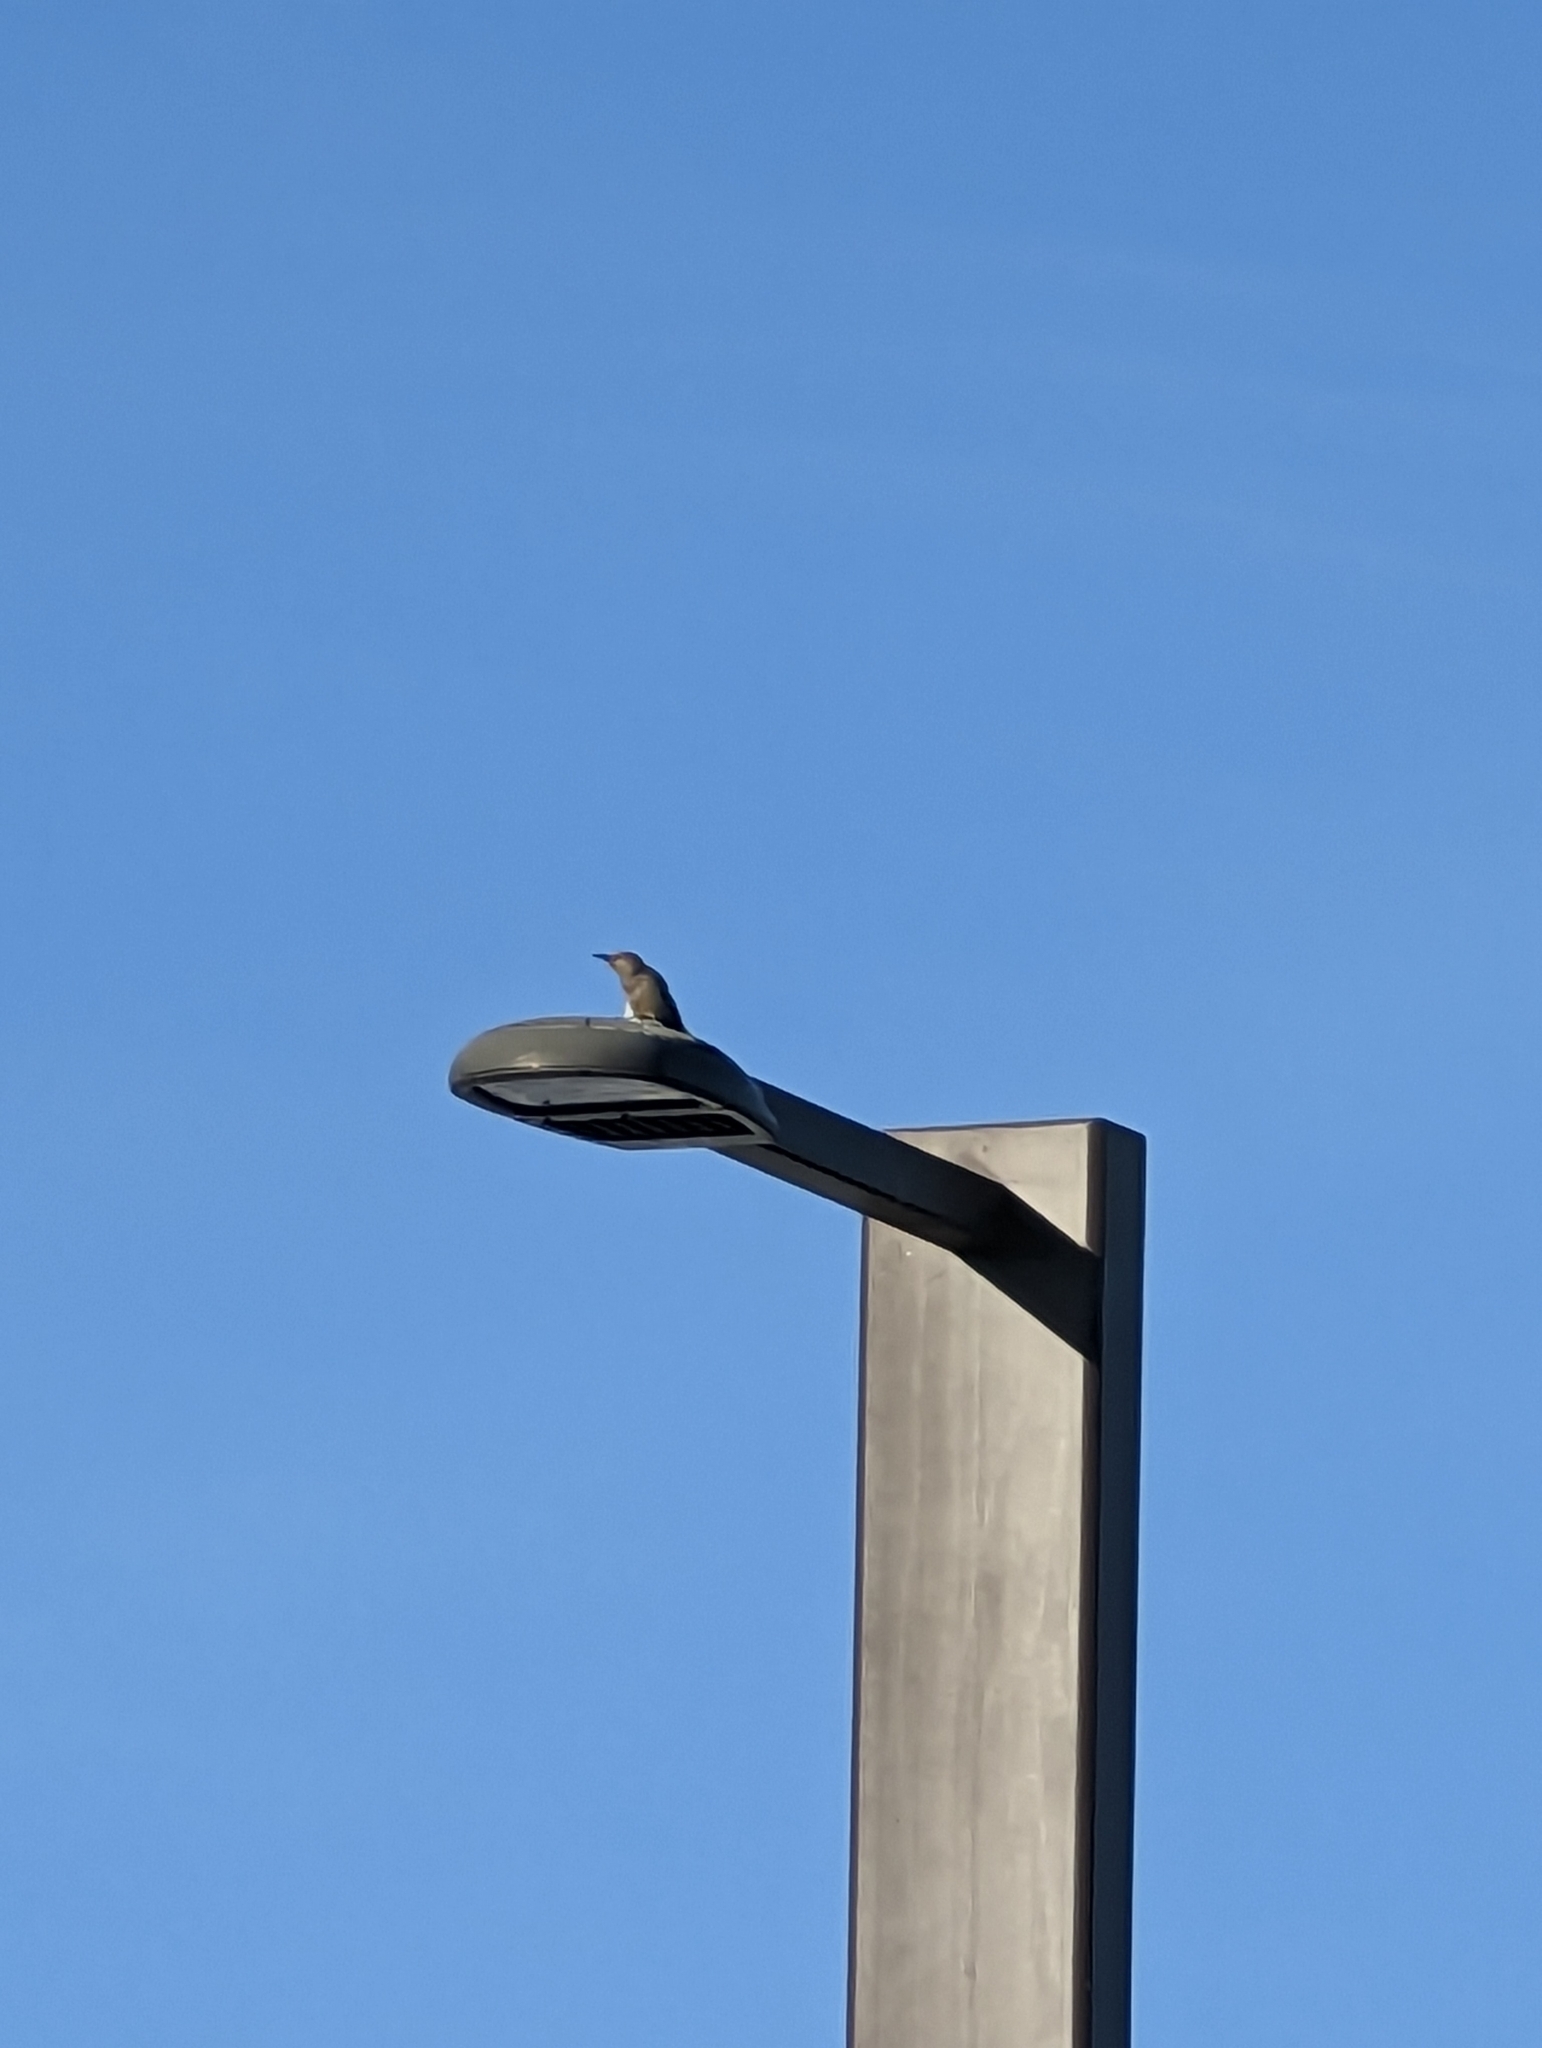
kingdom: Animalia
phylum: Chordata
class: Aves
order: Piciformes
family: Picidae
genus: Melanerpes
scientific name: Melanerpes uropygialis
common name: Gila woodpecker
